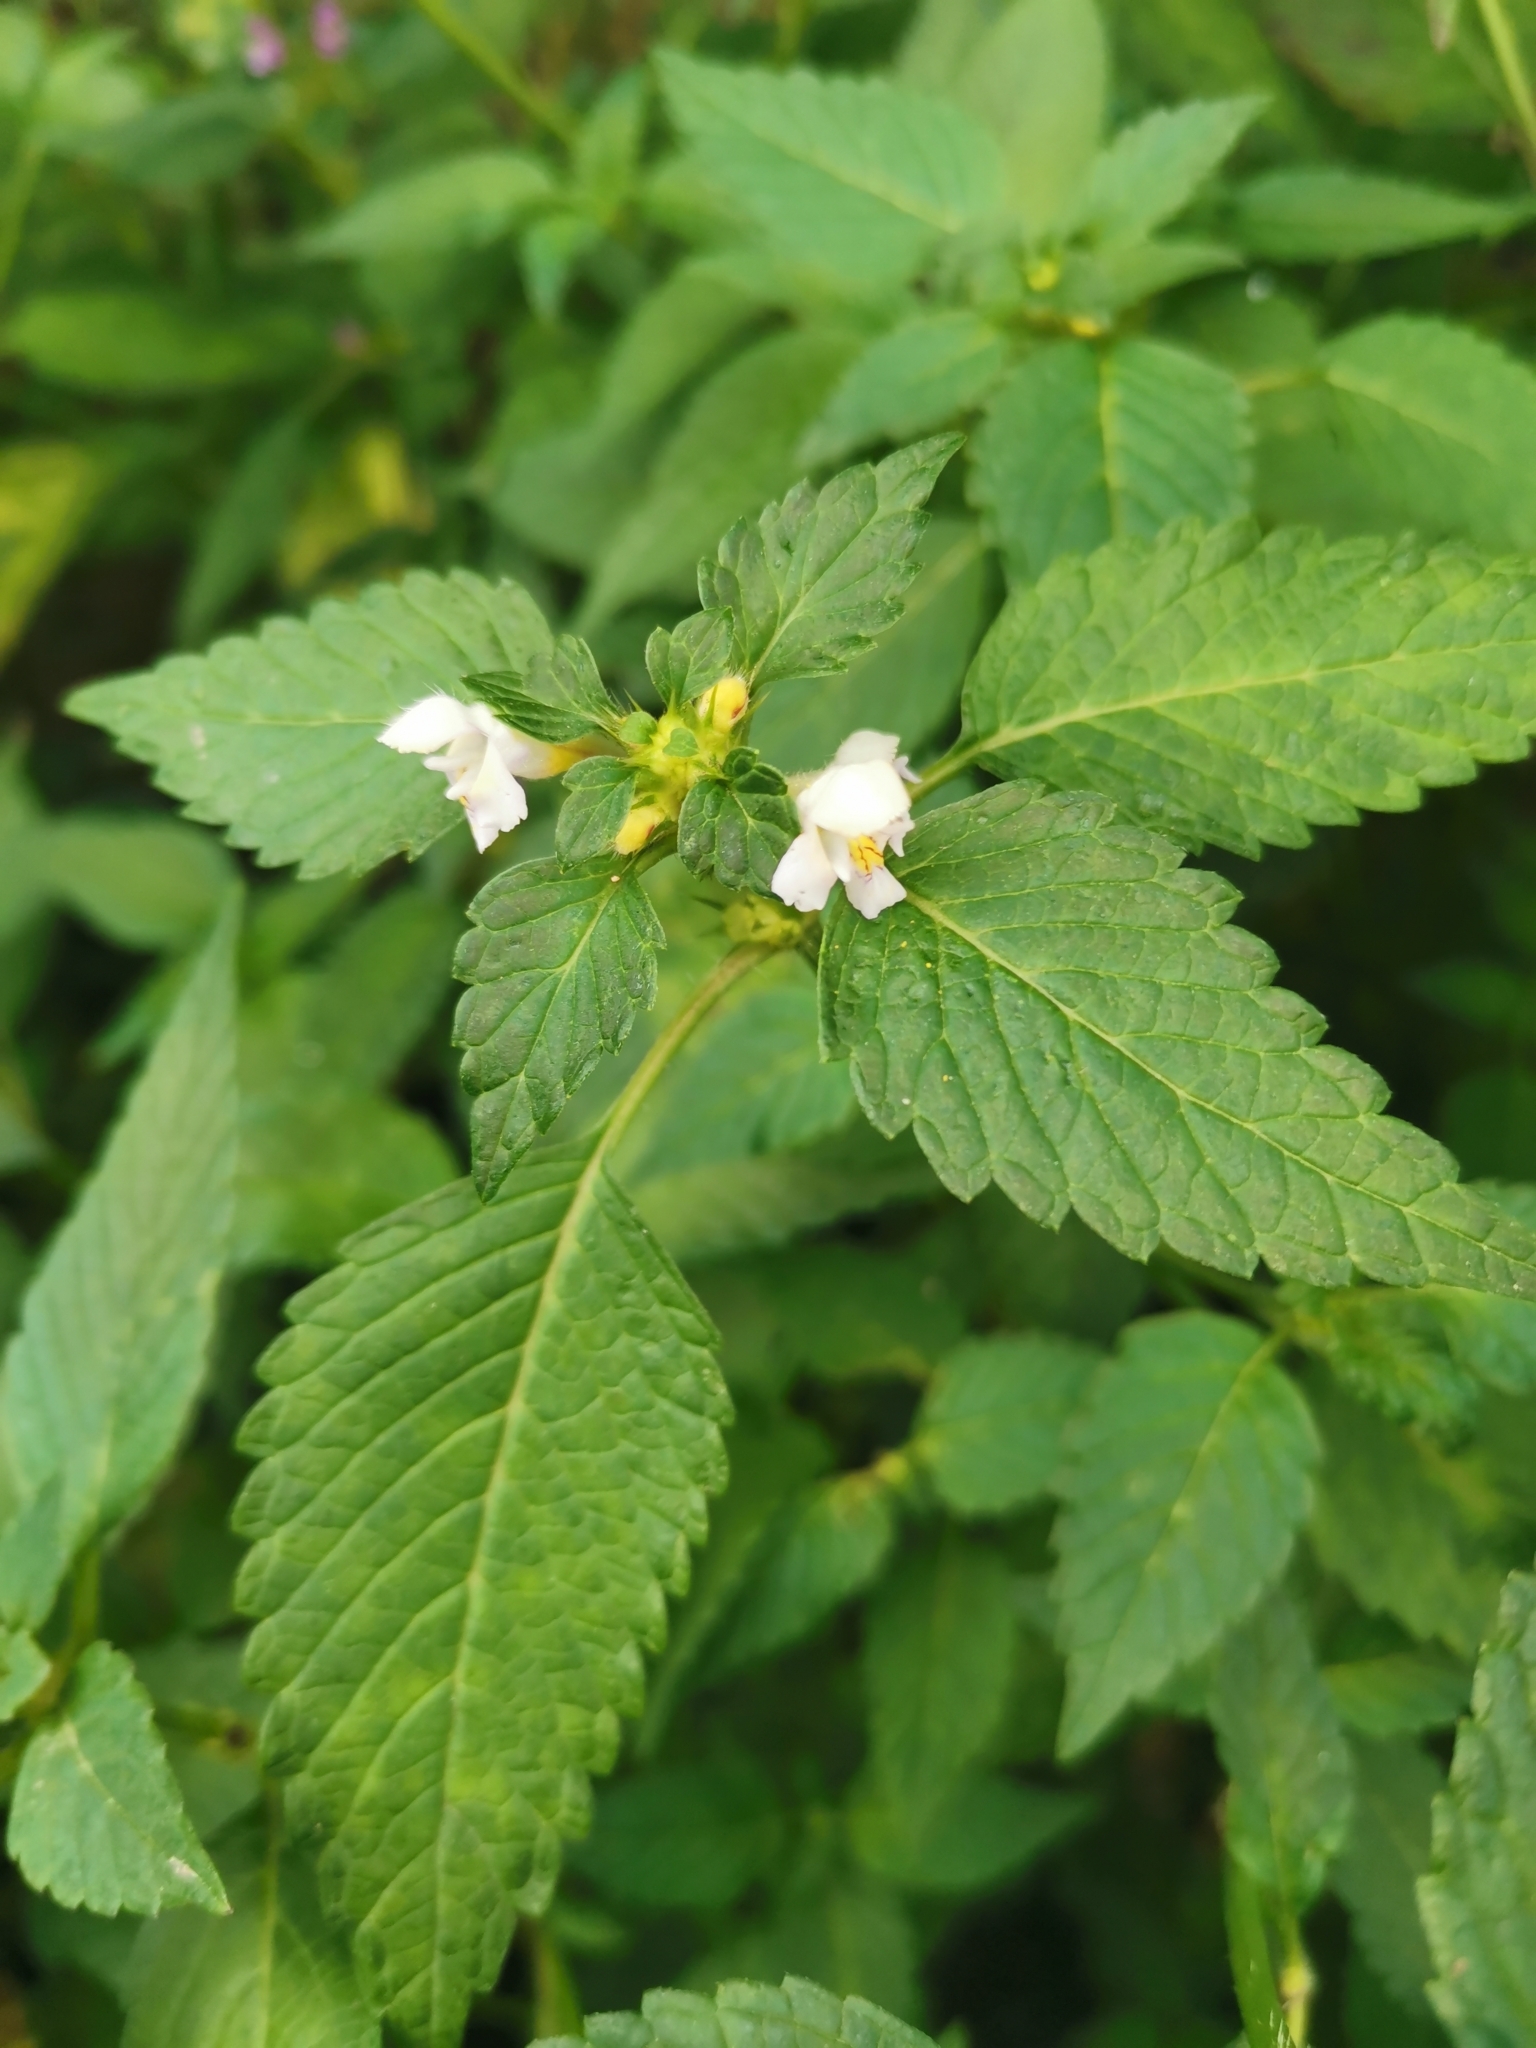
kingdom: Plantae
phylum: Tracheophyta
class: Magnoliopsida
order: Lamiales
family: Lamiaceae
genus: Galeopsis
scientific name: Galeopsis tetrahit
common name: Common hemp-nettle
